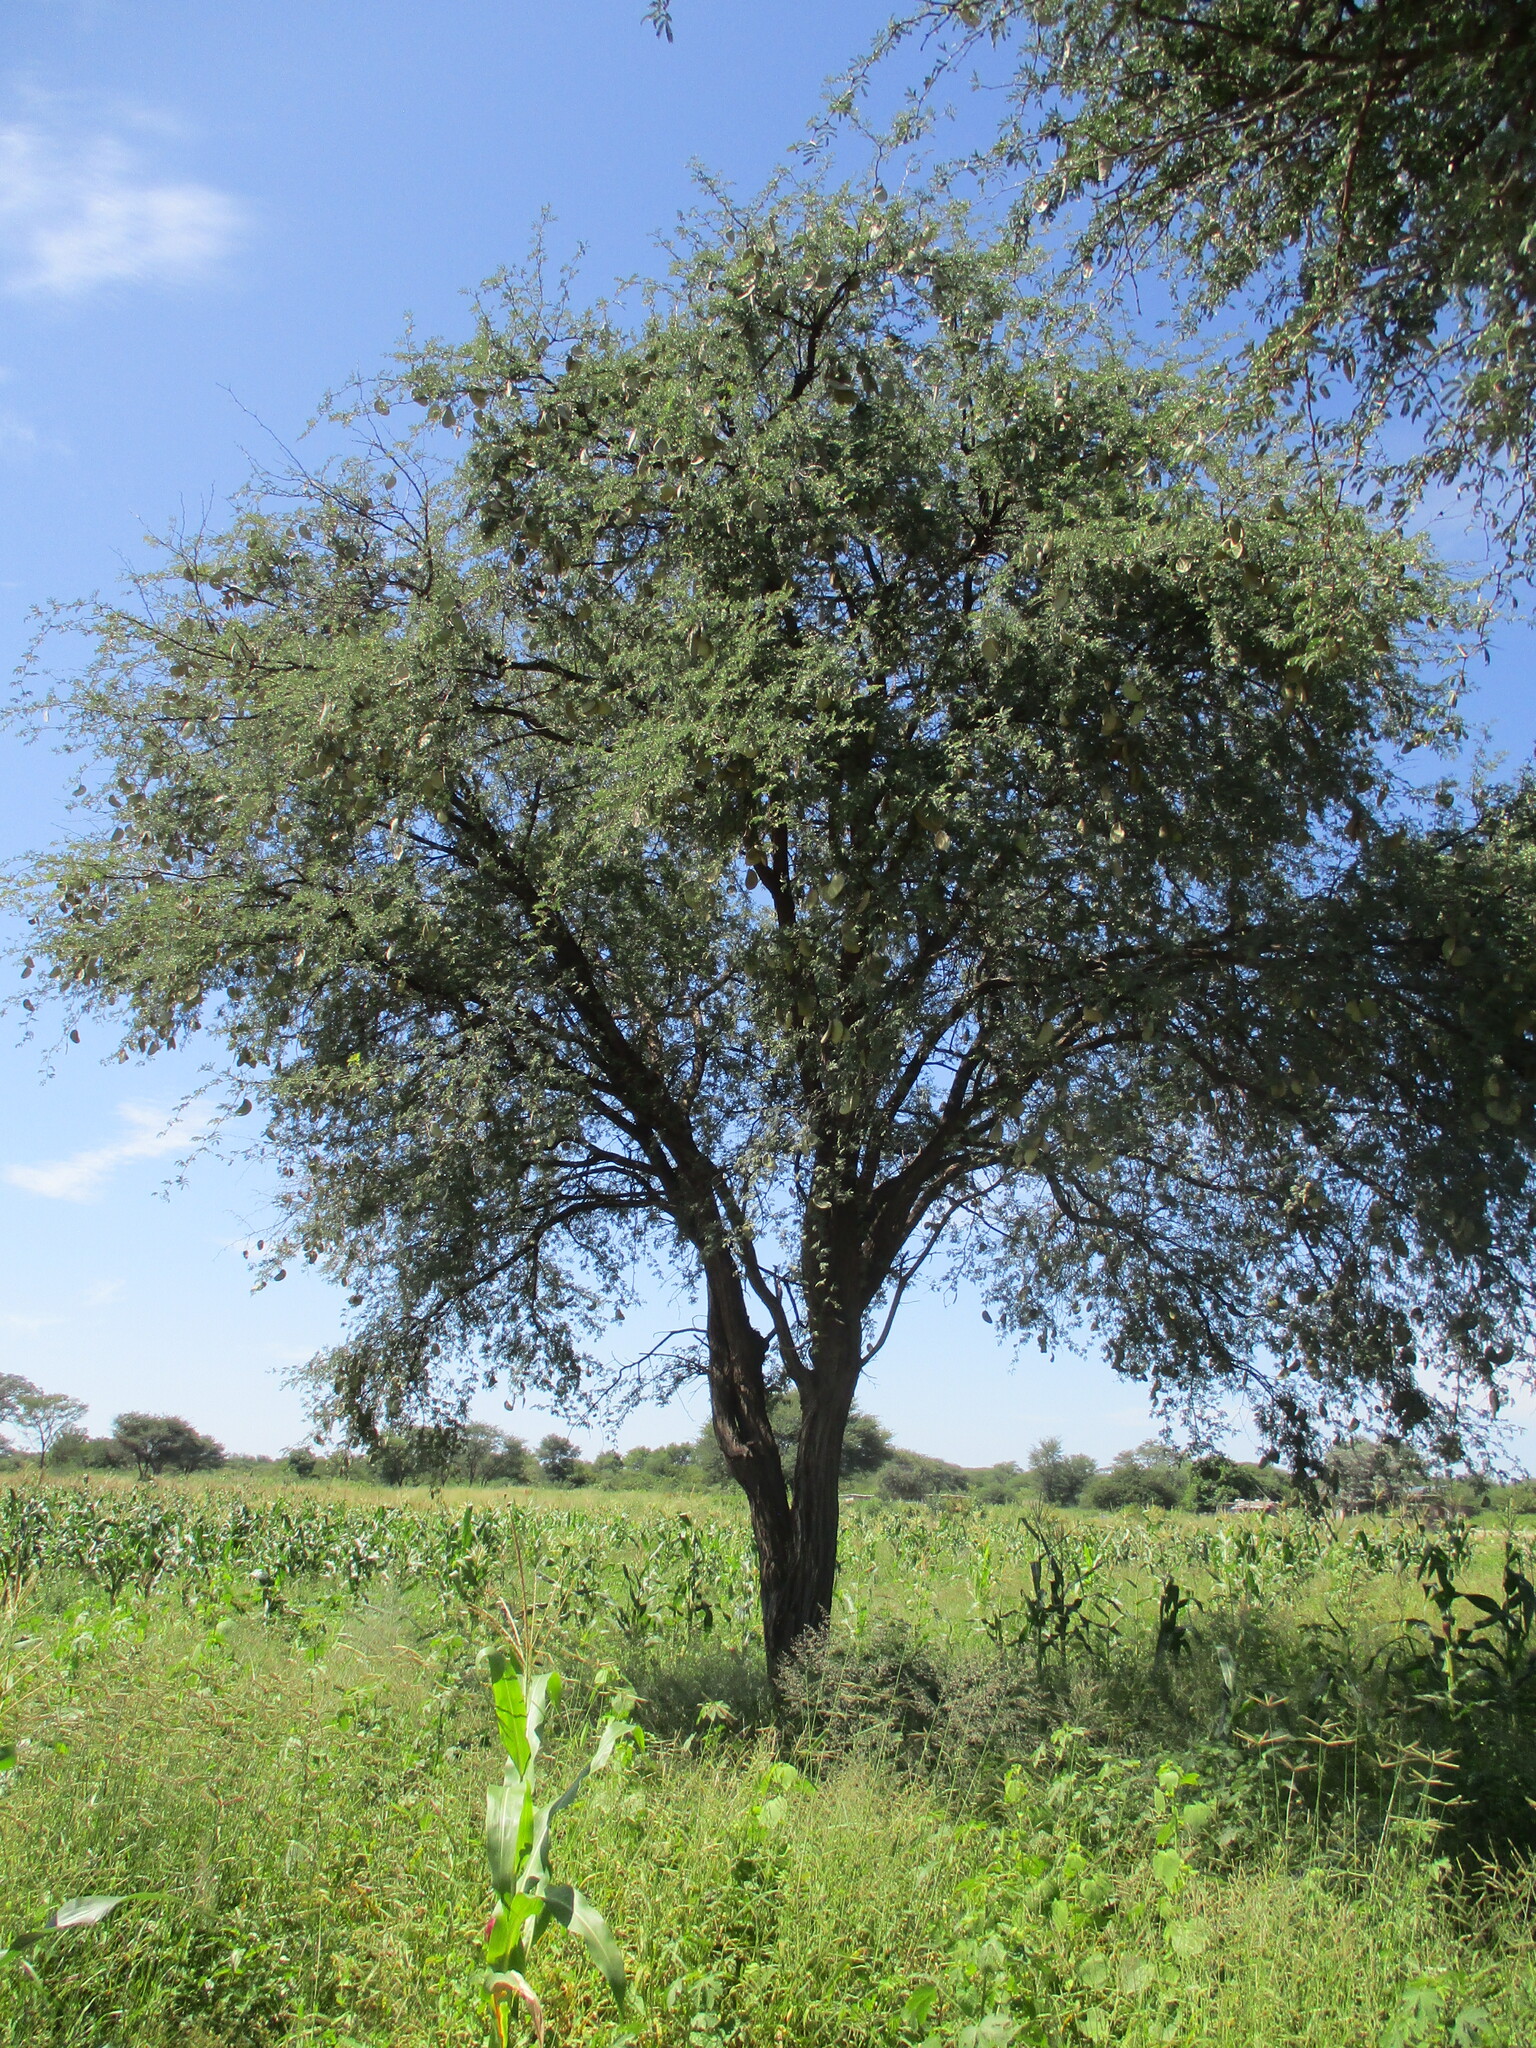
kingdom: Plantae
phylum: Tracheophyta
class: Magnoliopsida
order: Fabales
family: Fabaceae
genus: Vachellia
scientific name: Vachellia erioloba
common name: Camel thorn
